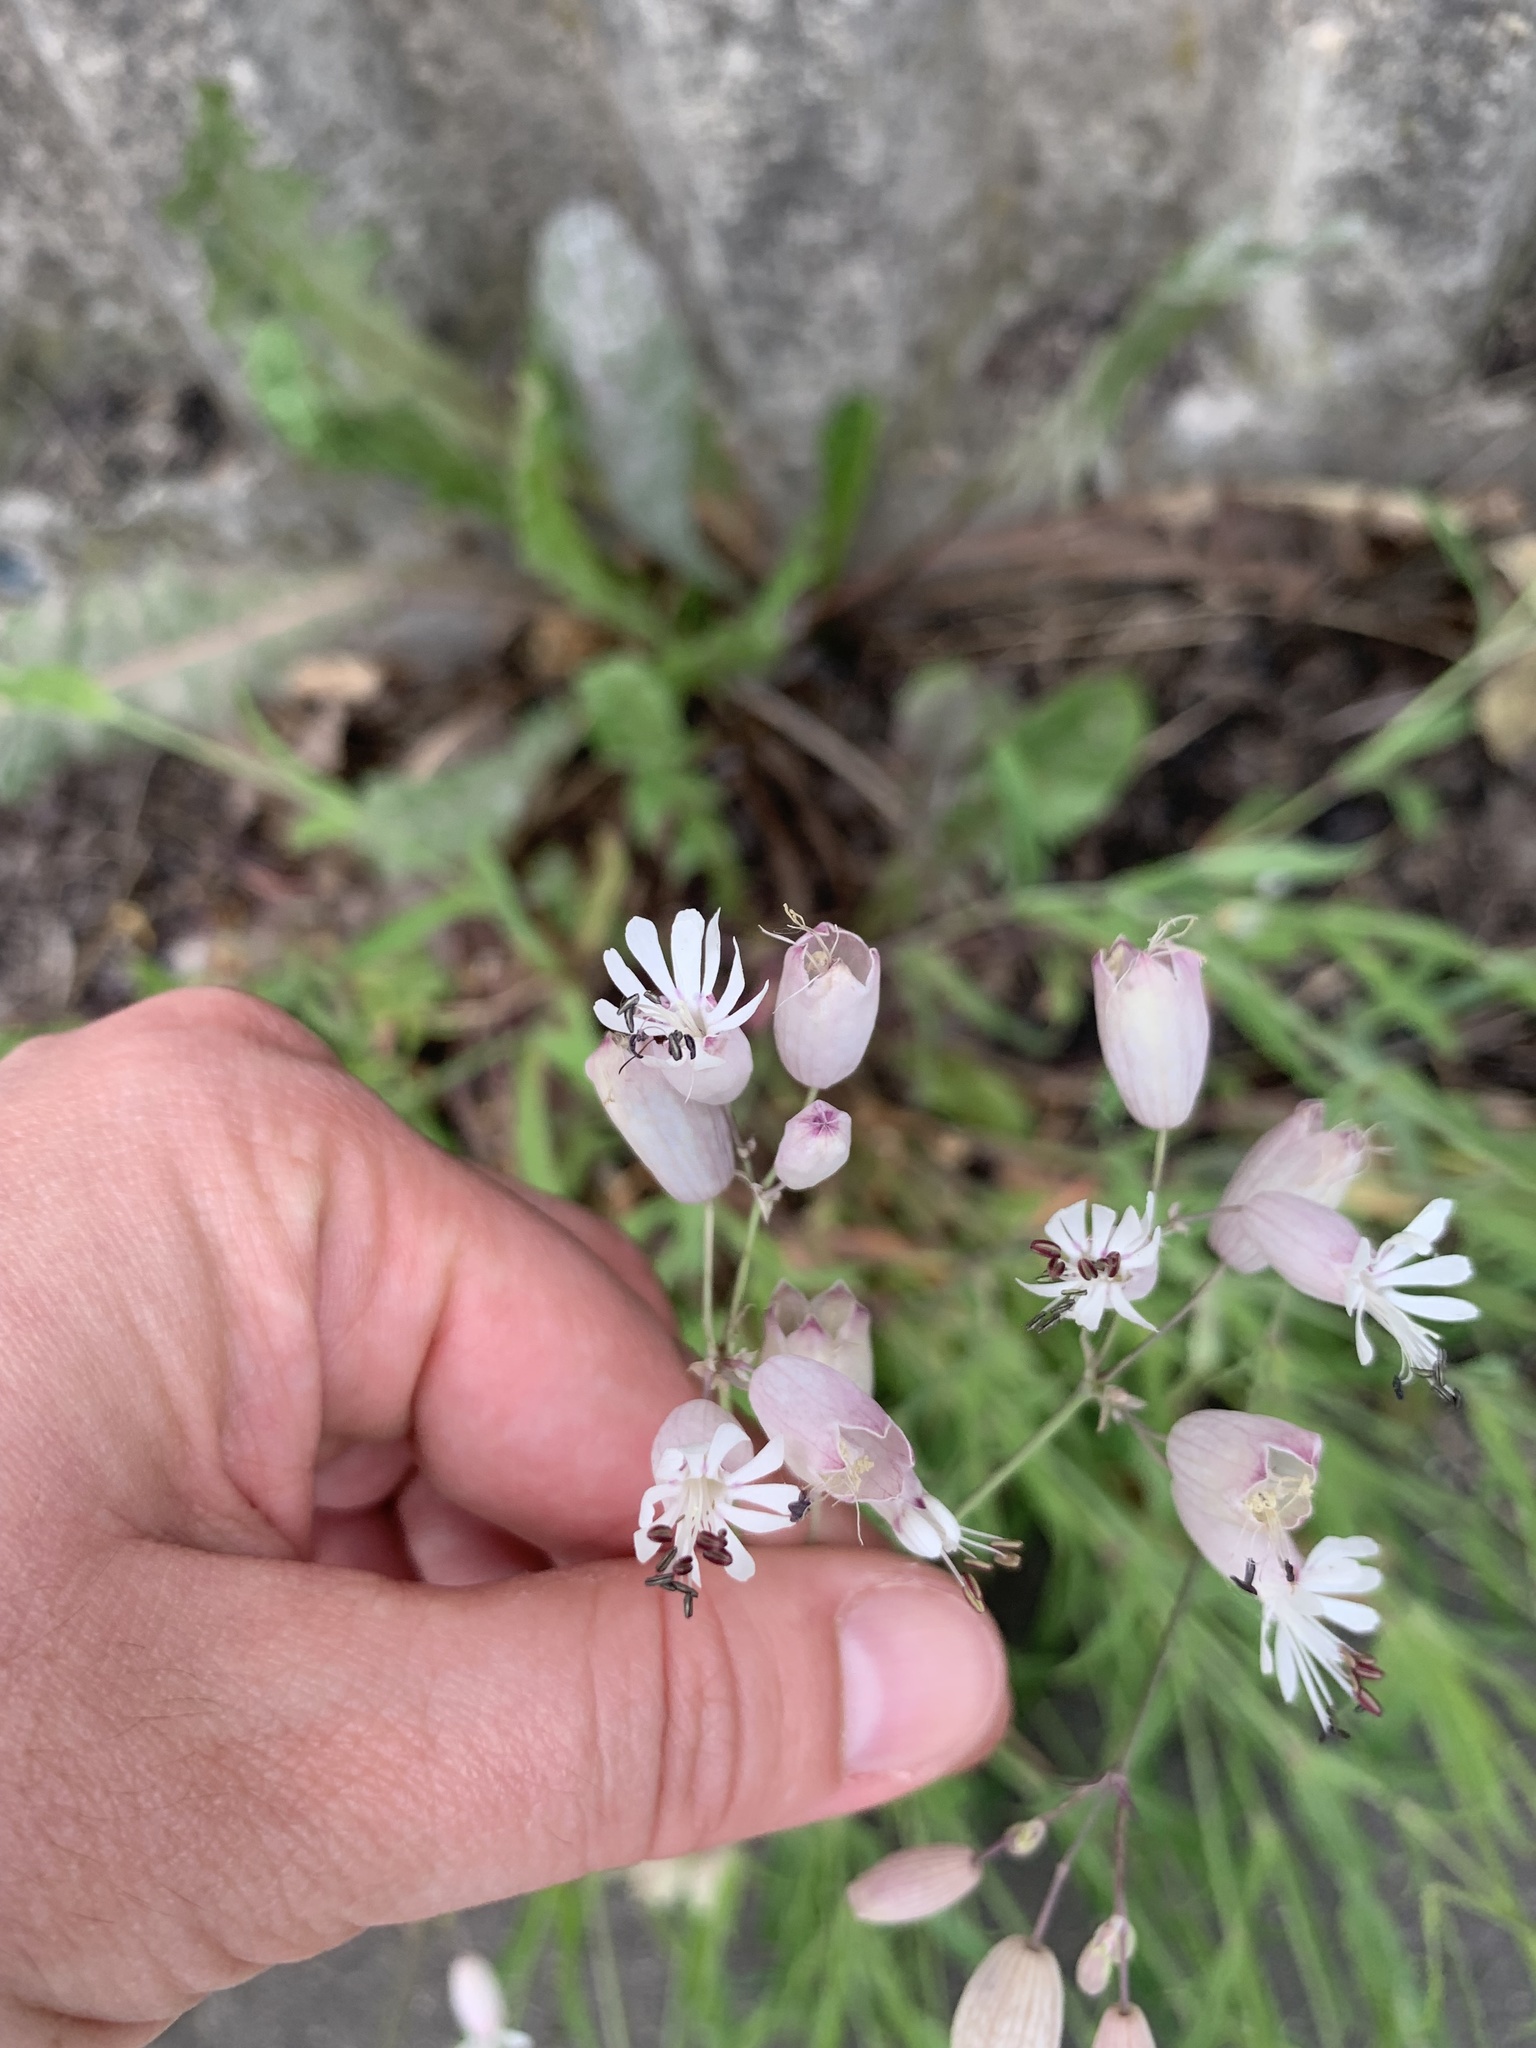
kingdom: Plantae
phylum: Tracheophyta
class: Magnoliopsida
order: Caryophyllales
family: Caryophyllaceae
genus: Silene
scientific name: Silene vulgaris
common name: Bladder campion
